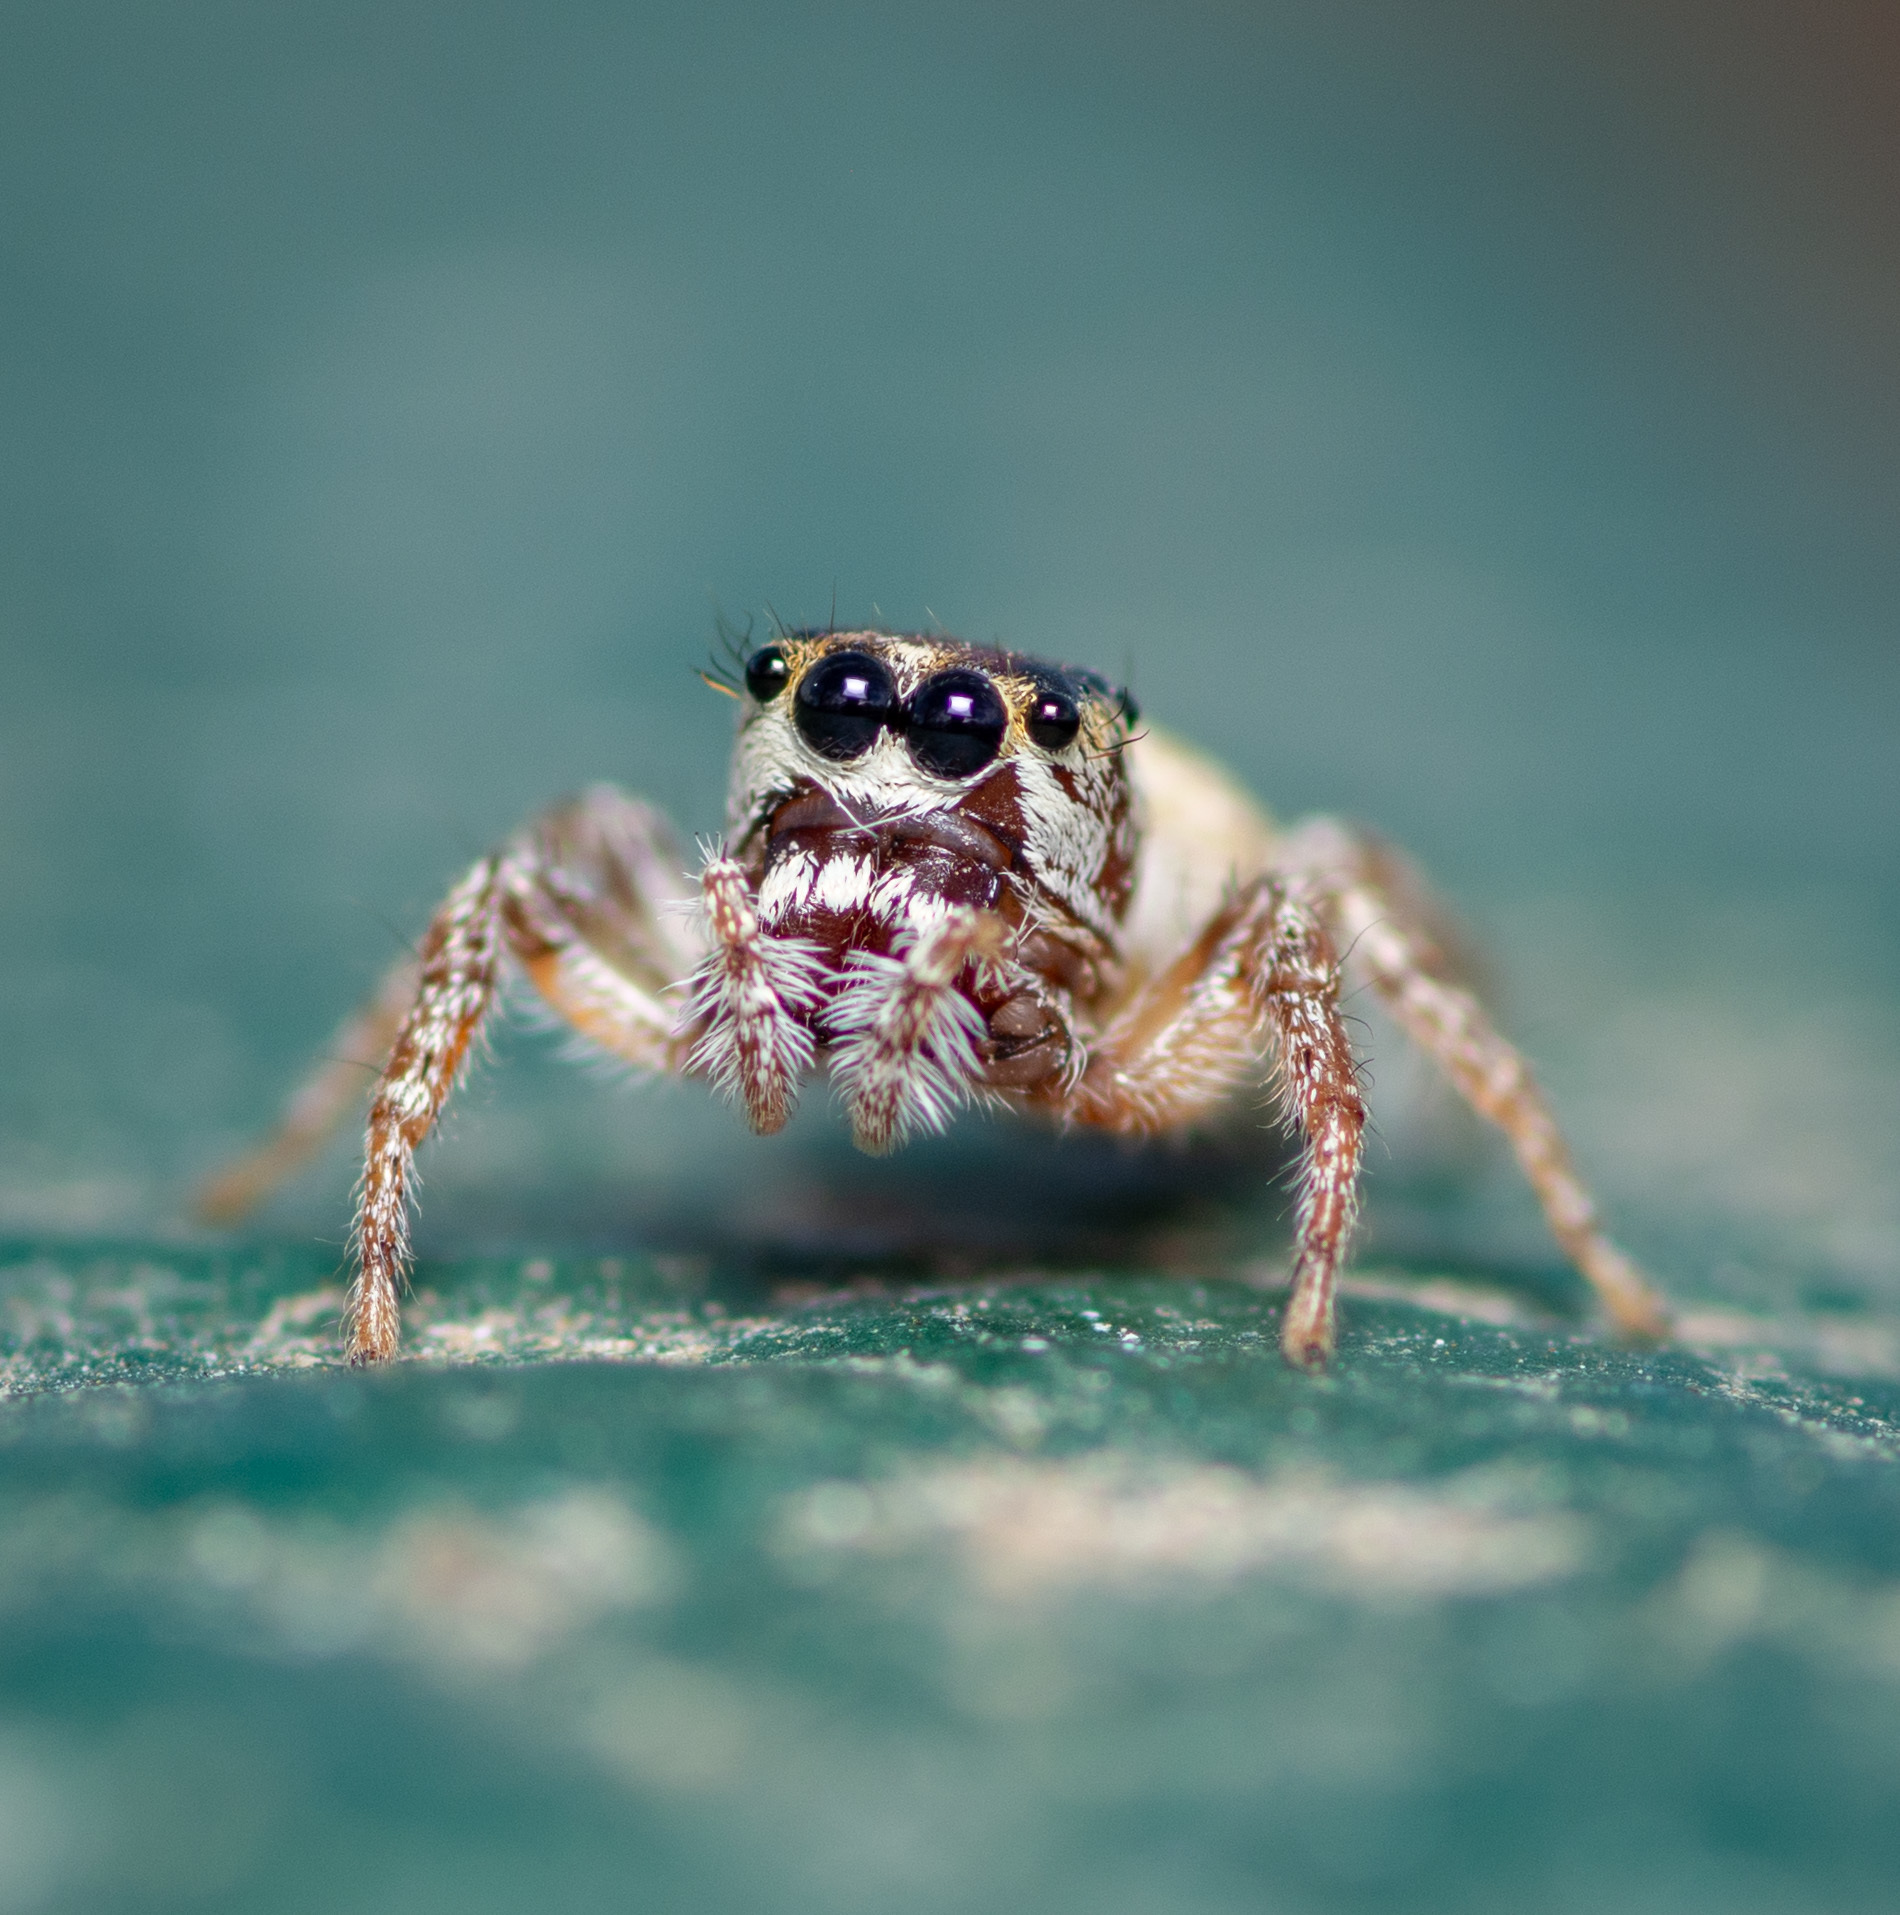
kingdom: Animalia
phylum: Arthropoda
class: Arachnida
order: Araneae
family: Salticidae
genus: Bagheera
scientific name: Bagheera prosper
